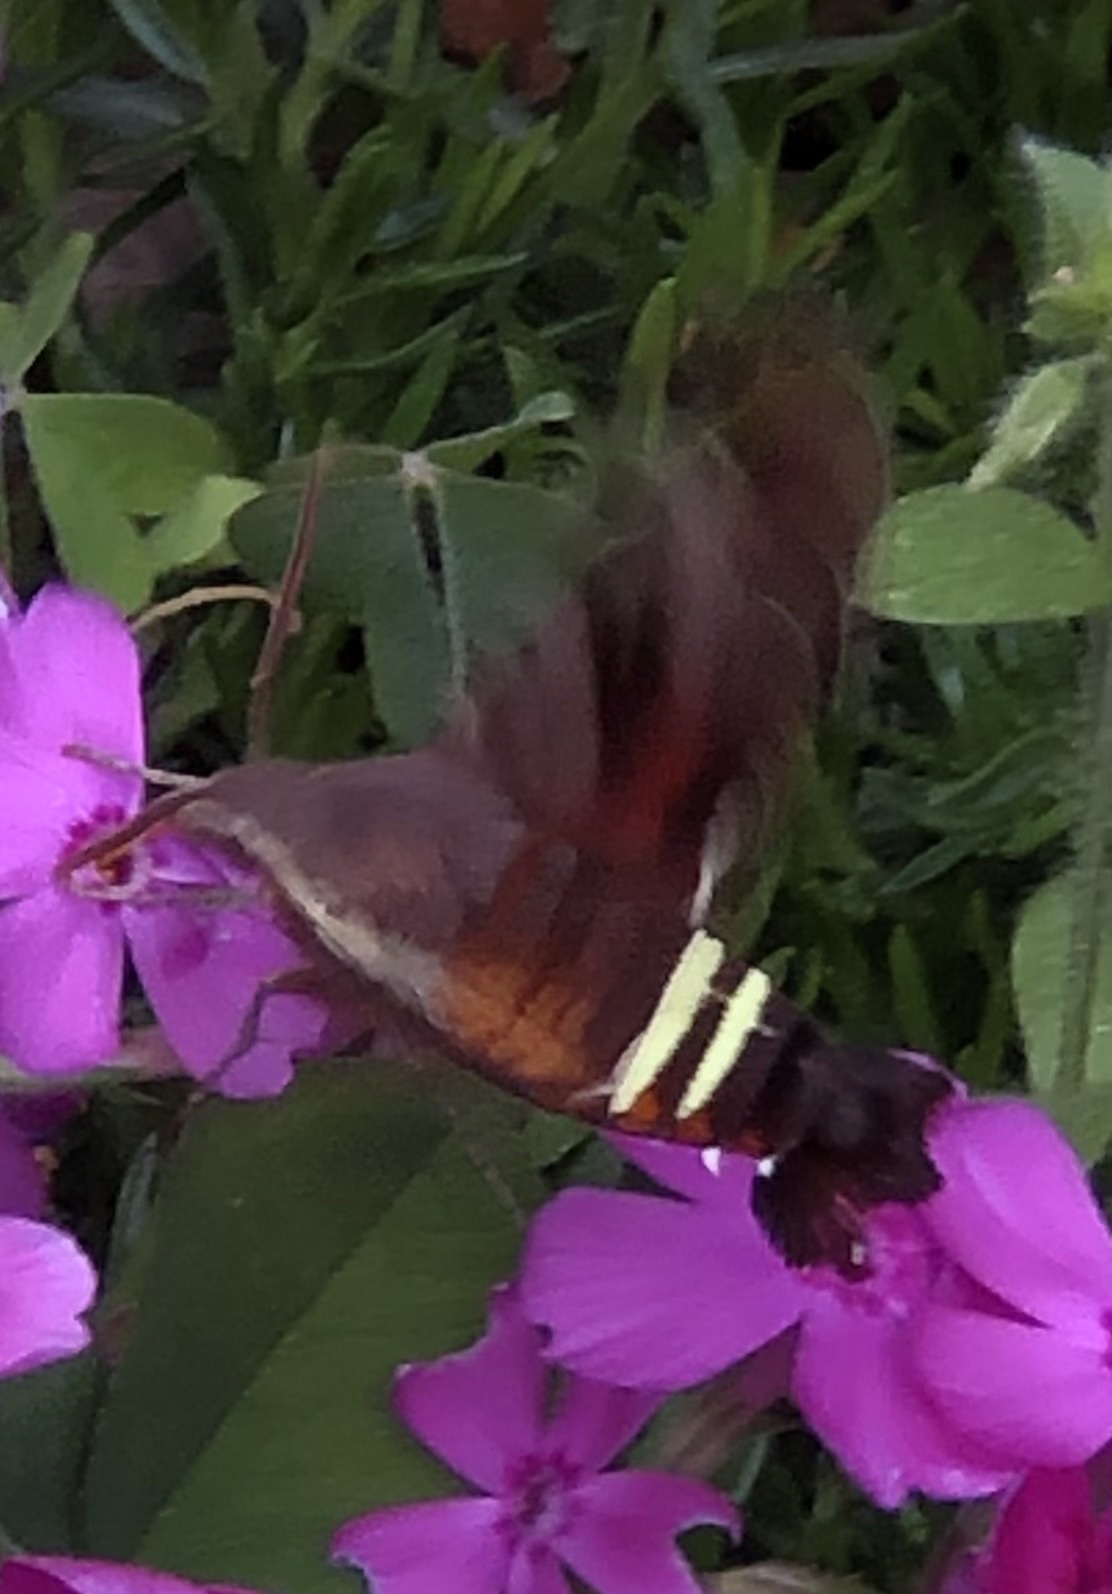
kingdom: Animalia
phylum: Arthropoda
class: Insecta
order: Lepidoptera
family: Sphingidae
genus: Amphion
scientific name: Amphion floridensis
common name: Nessus sphinx
